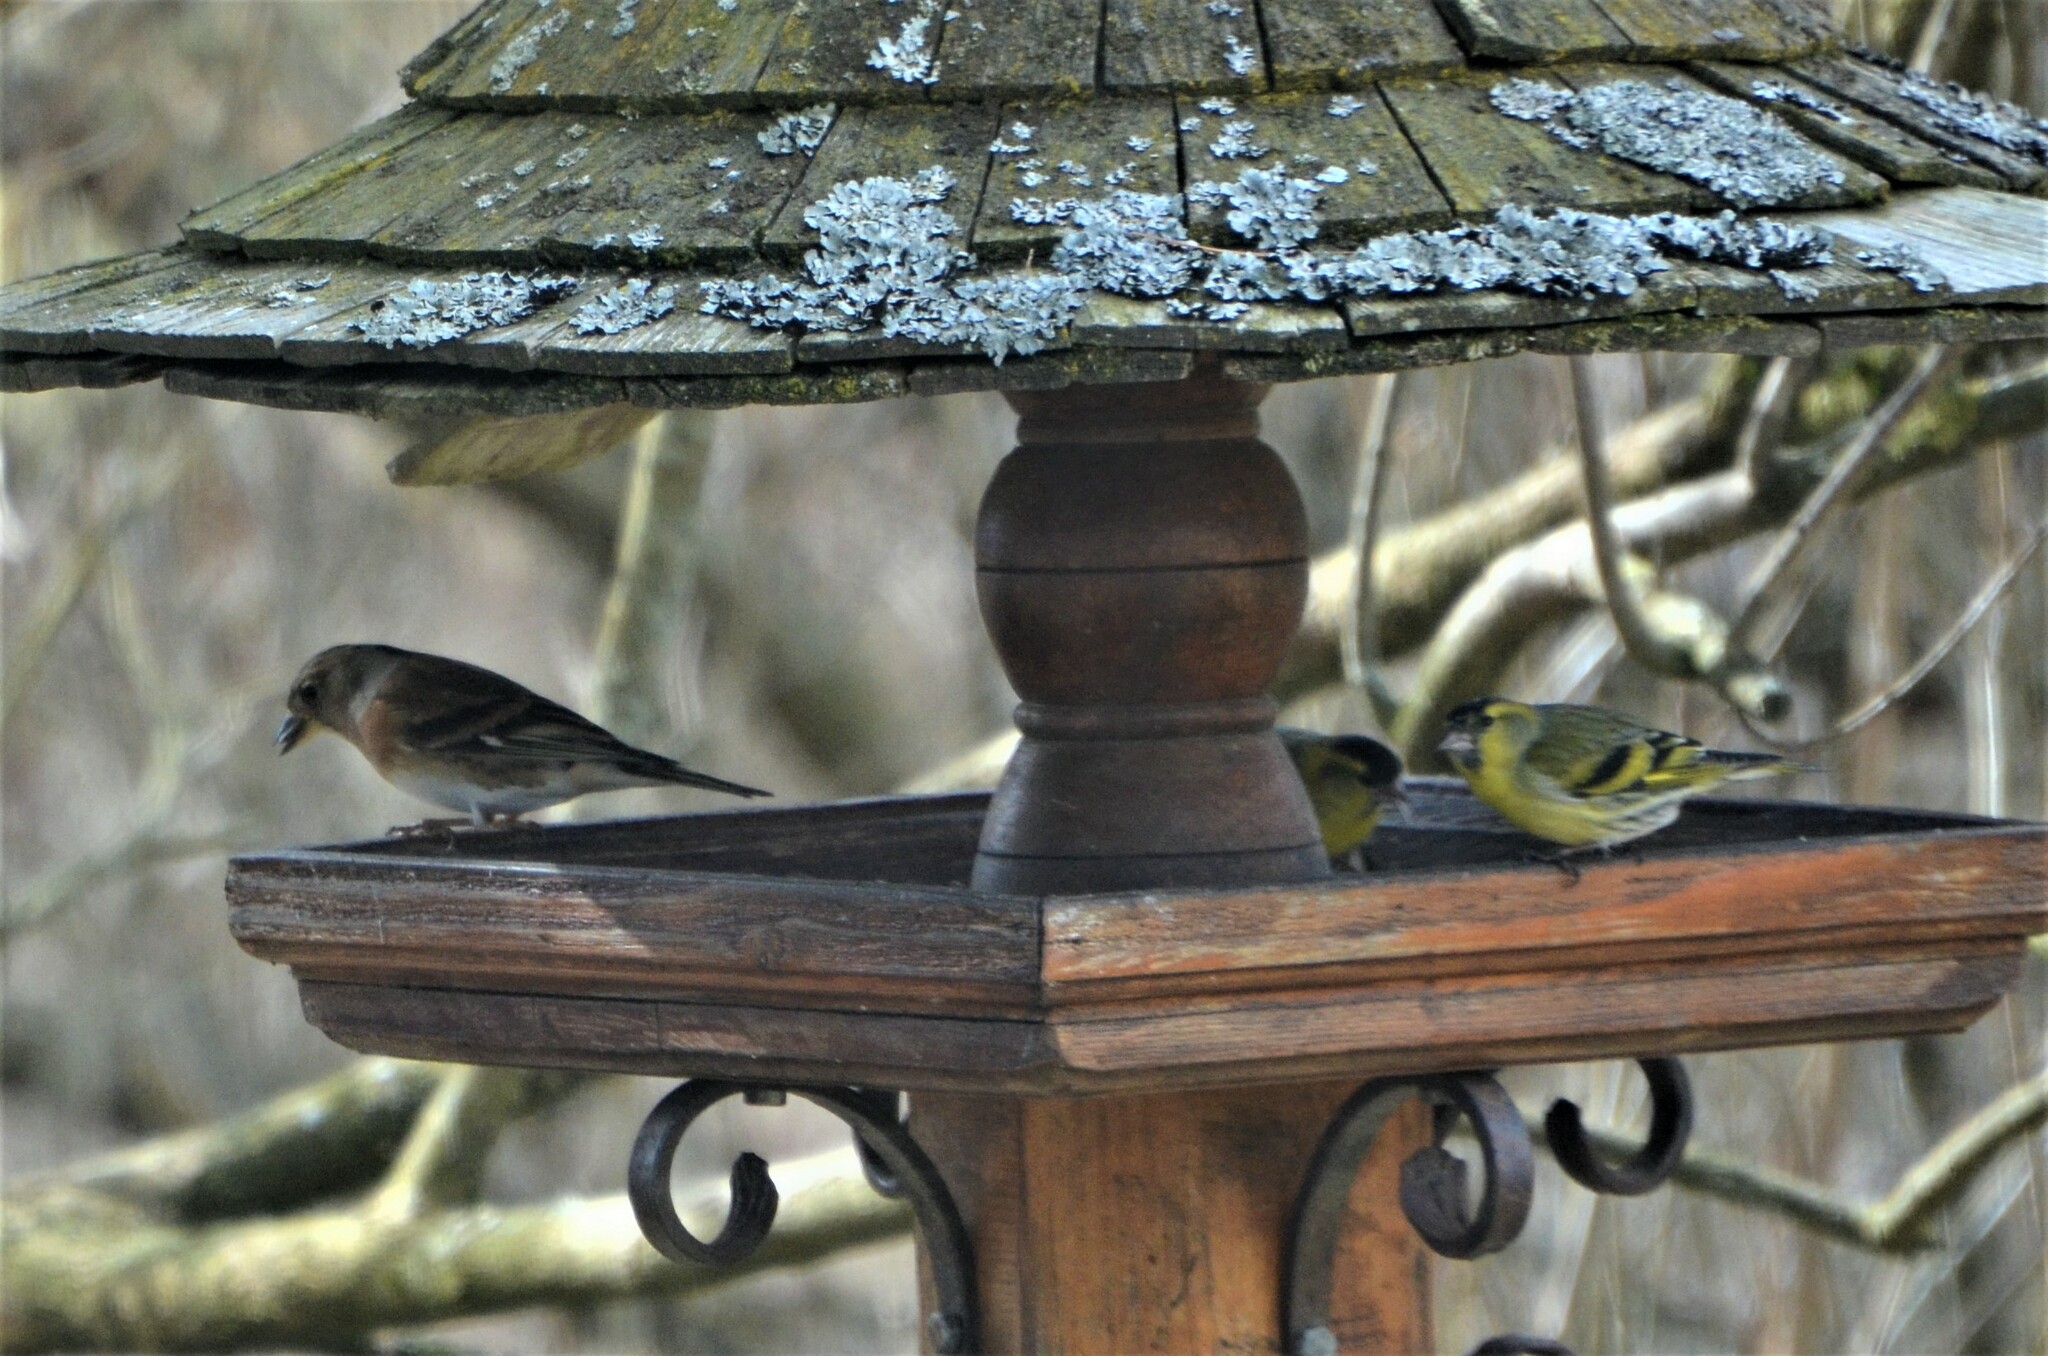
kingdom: Animalia
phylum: Chordata
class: Aves
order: Passeriformes
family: Fringillidae
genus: Spinus
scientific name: Spinus spinus
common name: Eurasian siskin
